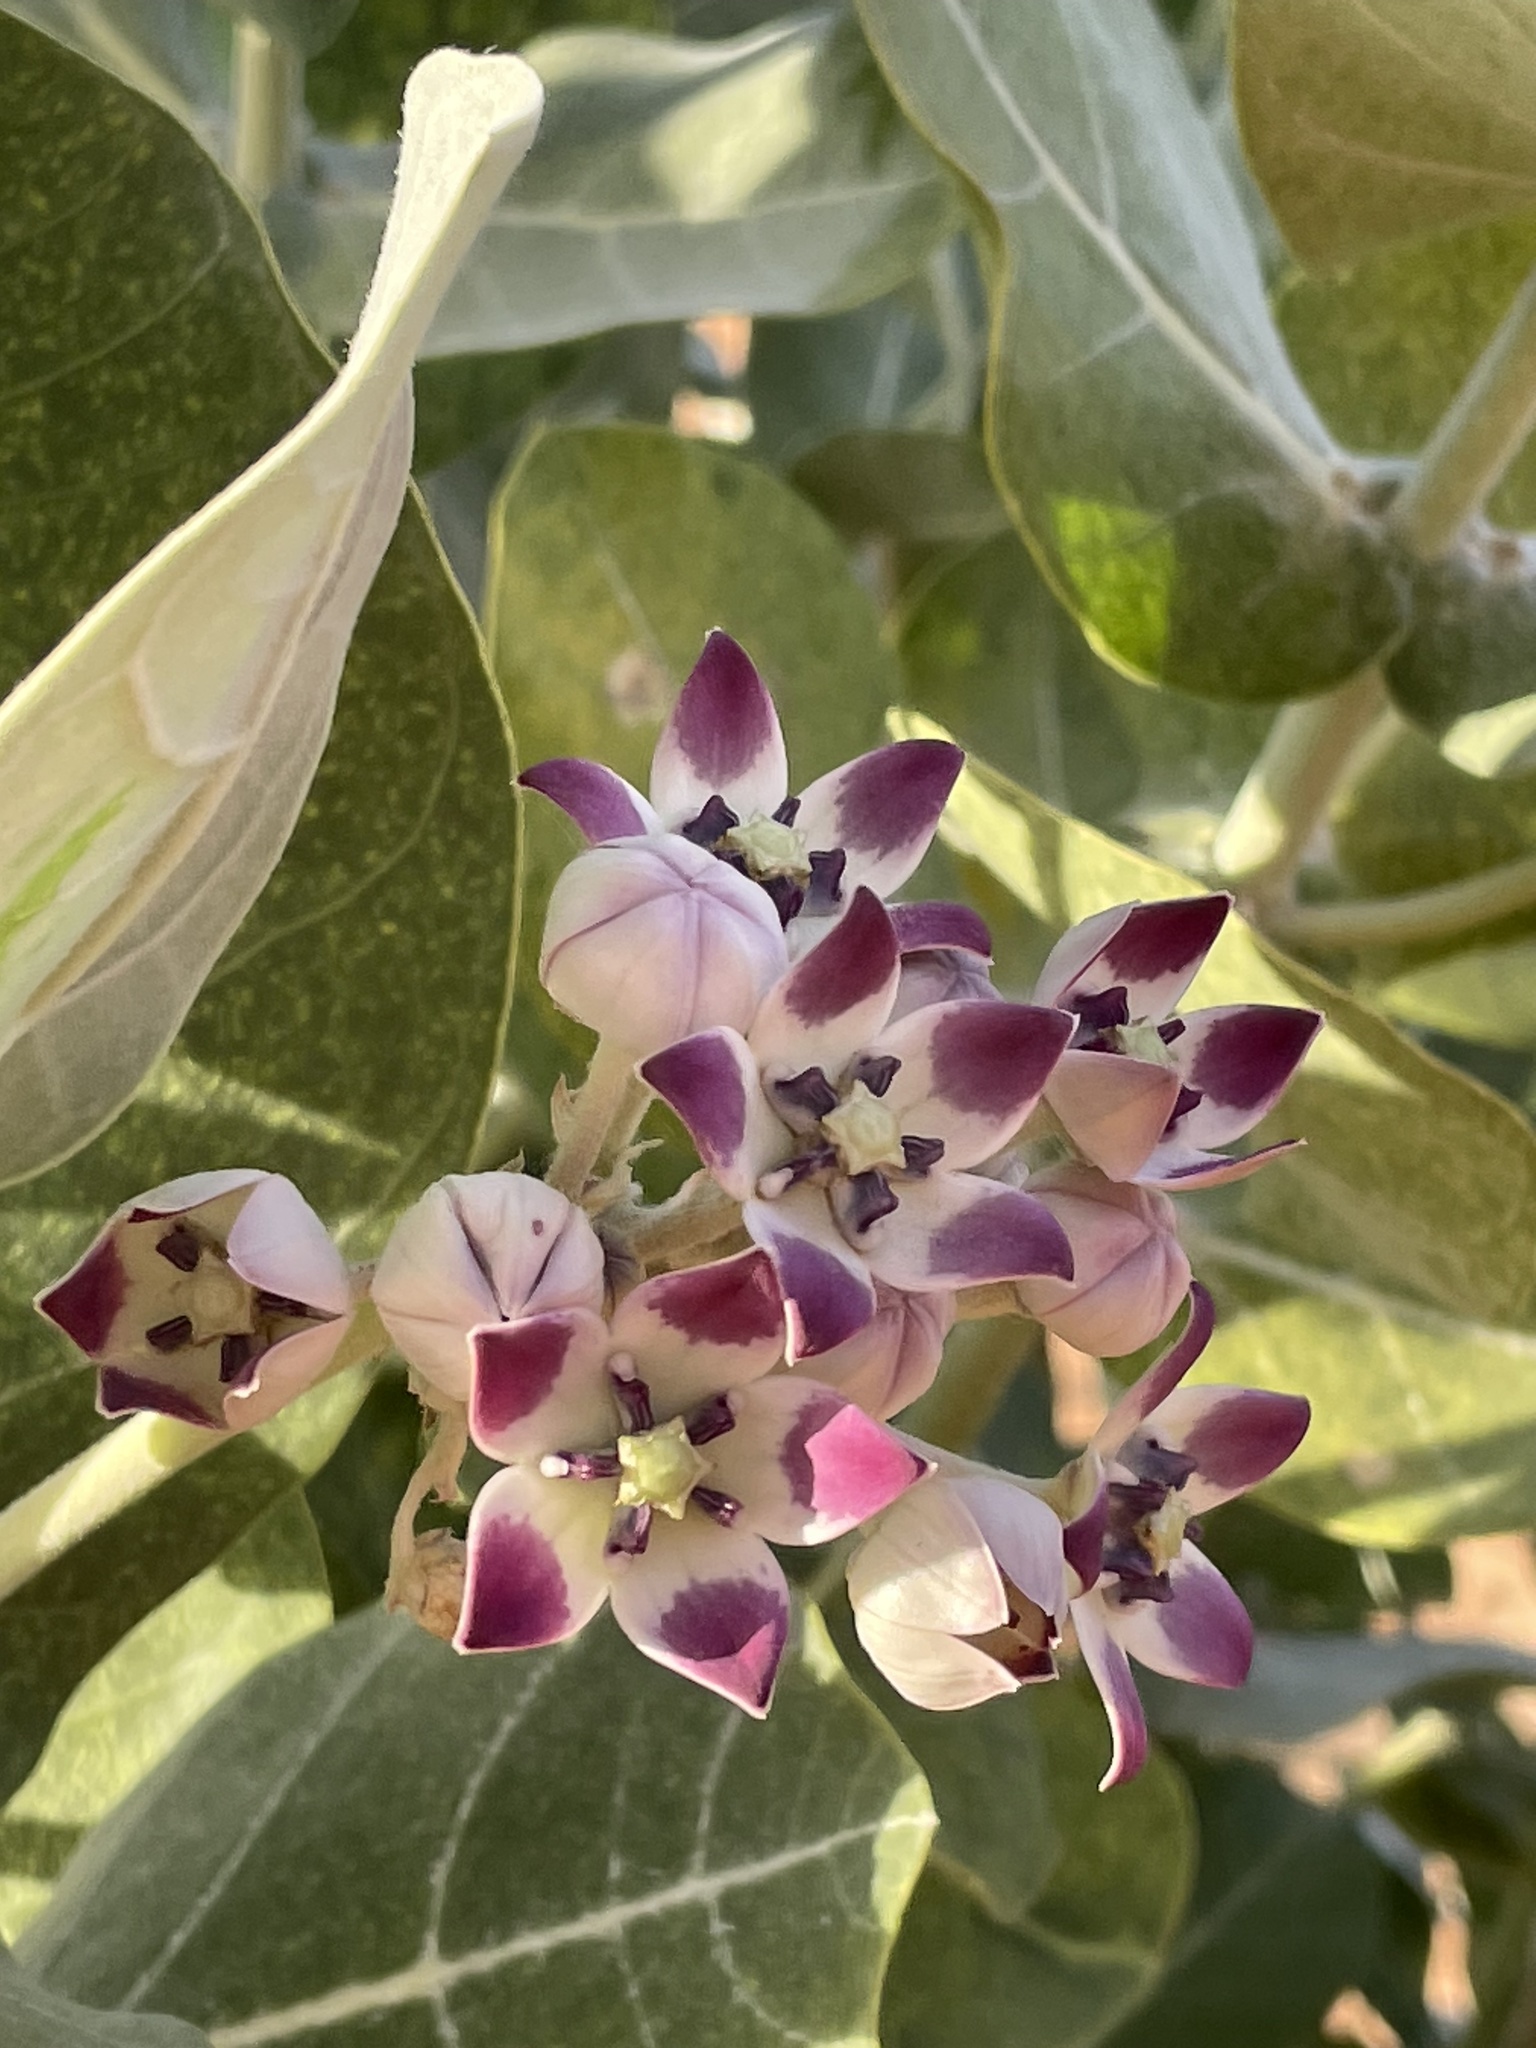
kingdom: Plantae
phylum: Tracheophyta
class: Magnoliopsida
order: Gentianales
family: Apocynaceae
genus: Calotropis
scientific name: Calotropis procera
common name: Roostertree
